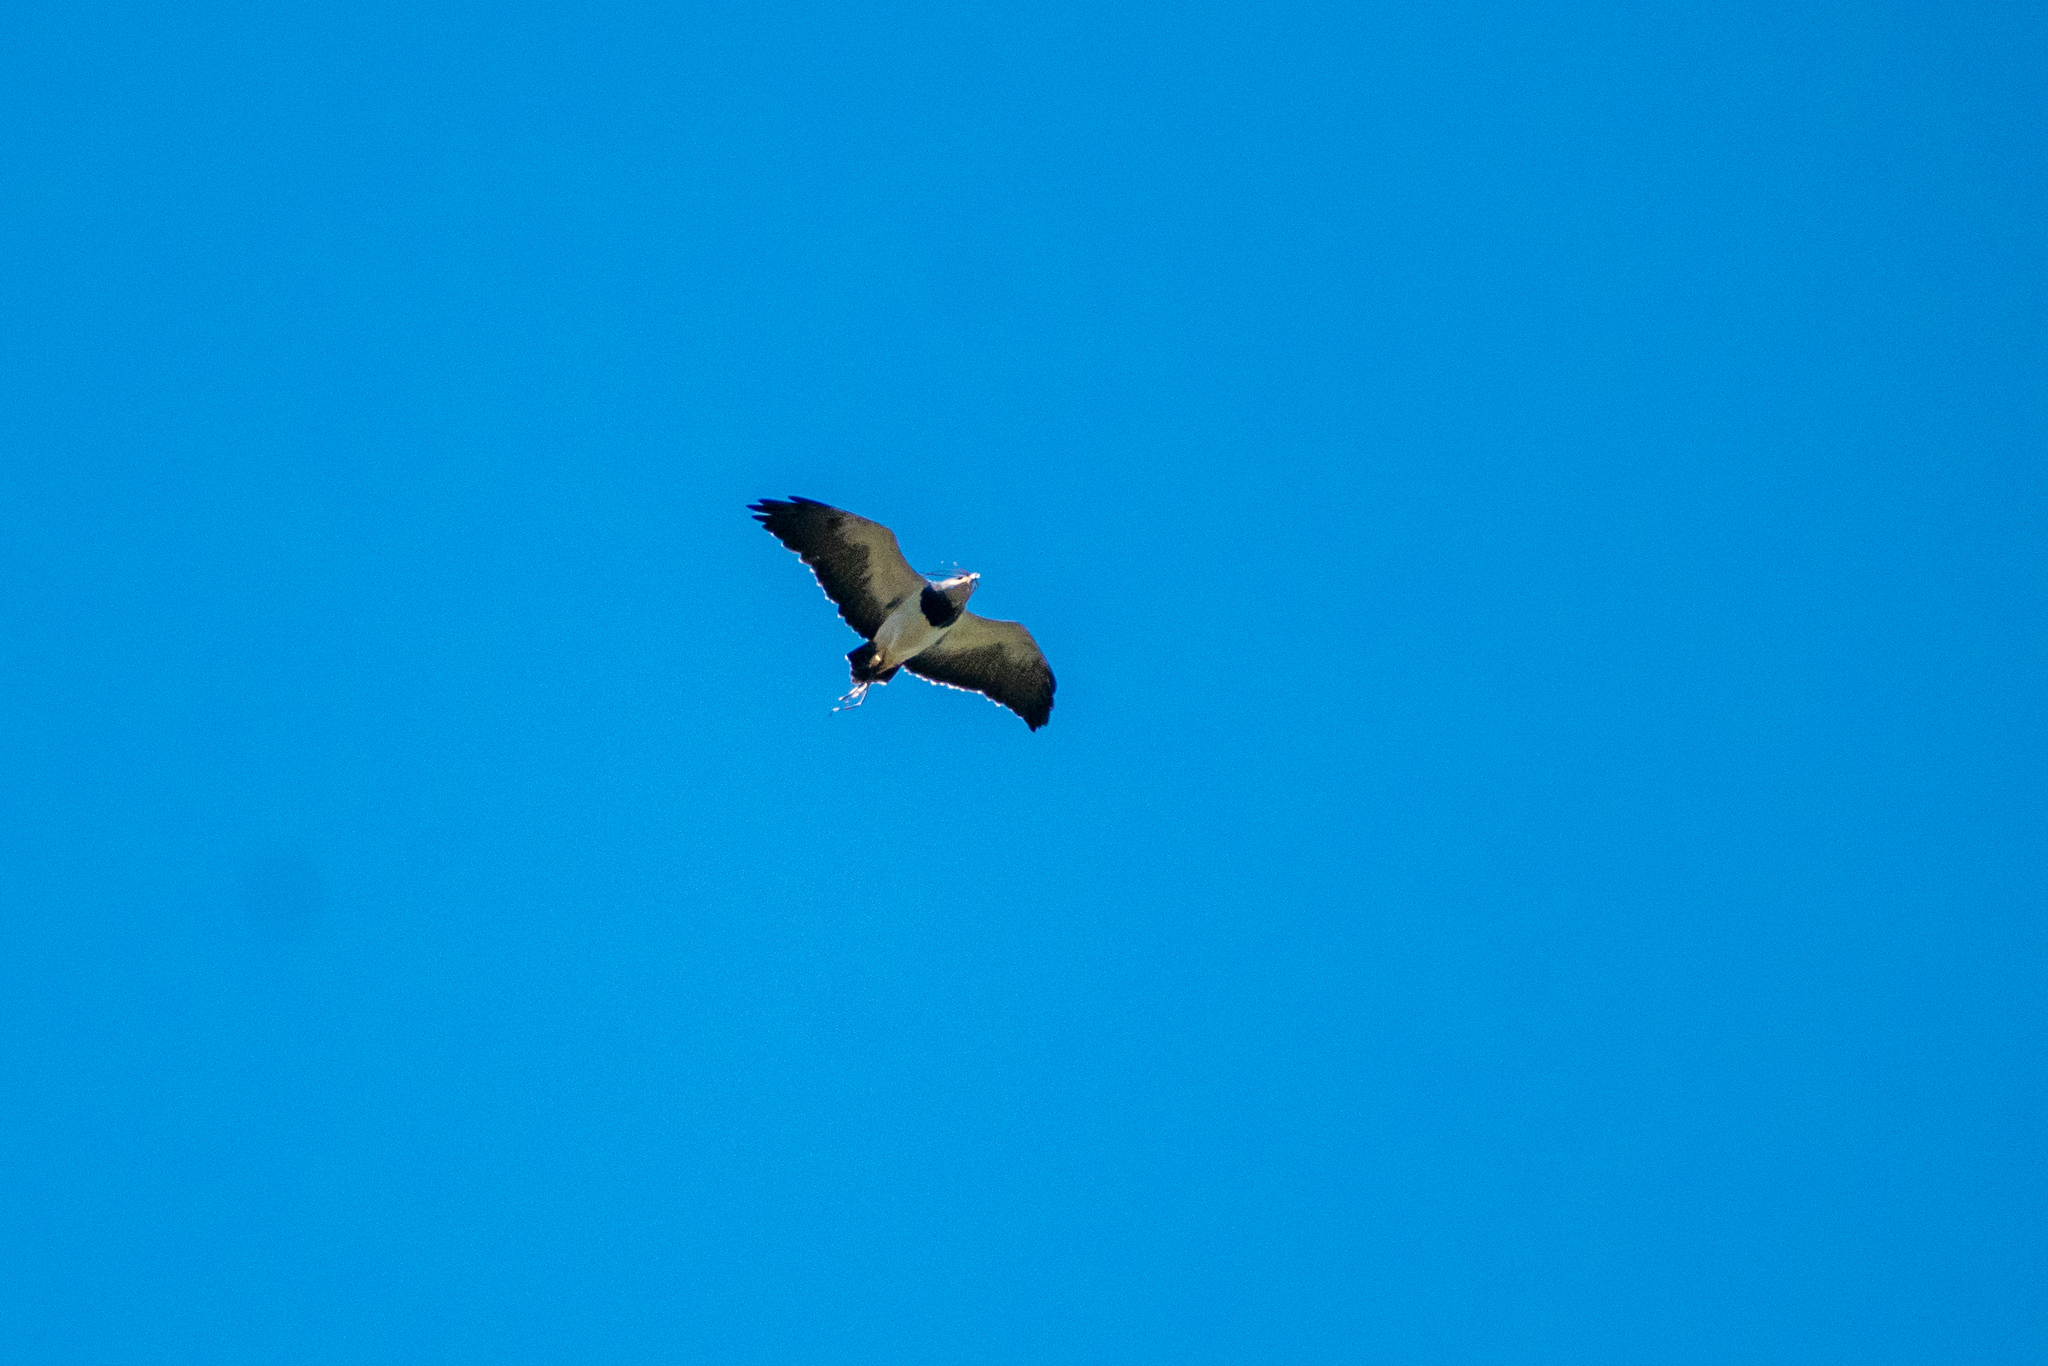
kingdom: Animalia
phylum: Chordata
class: Aves
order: Accipitriformes
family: Accipitridae
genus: Geranoaetus
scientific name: Geranoaetus melanoleucus
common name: Black-chested buzzard-eagle
